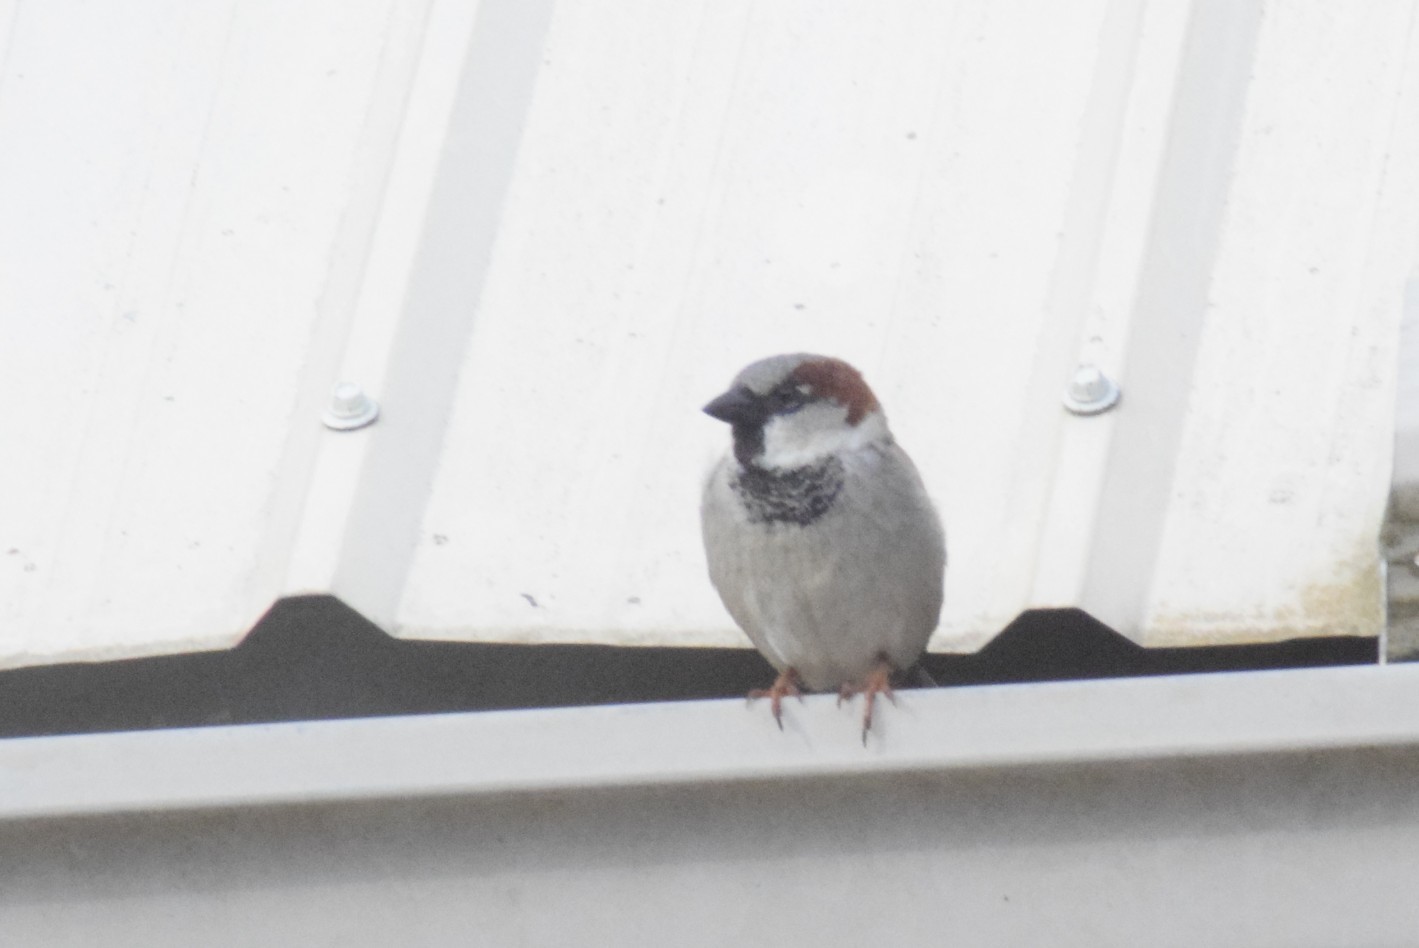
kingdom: Animalia
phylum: Chordata
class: Aves
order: Passeriformes
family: Passeridae
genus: Passer
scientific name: Passer domesticus
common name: House sparrow
